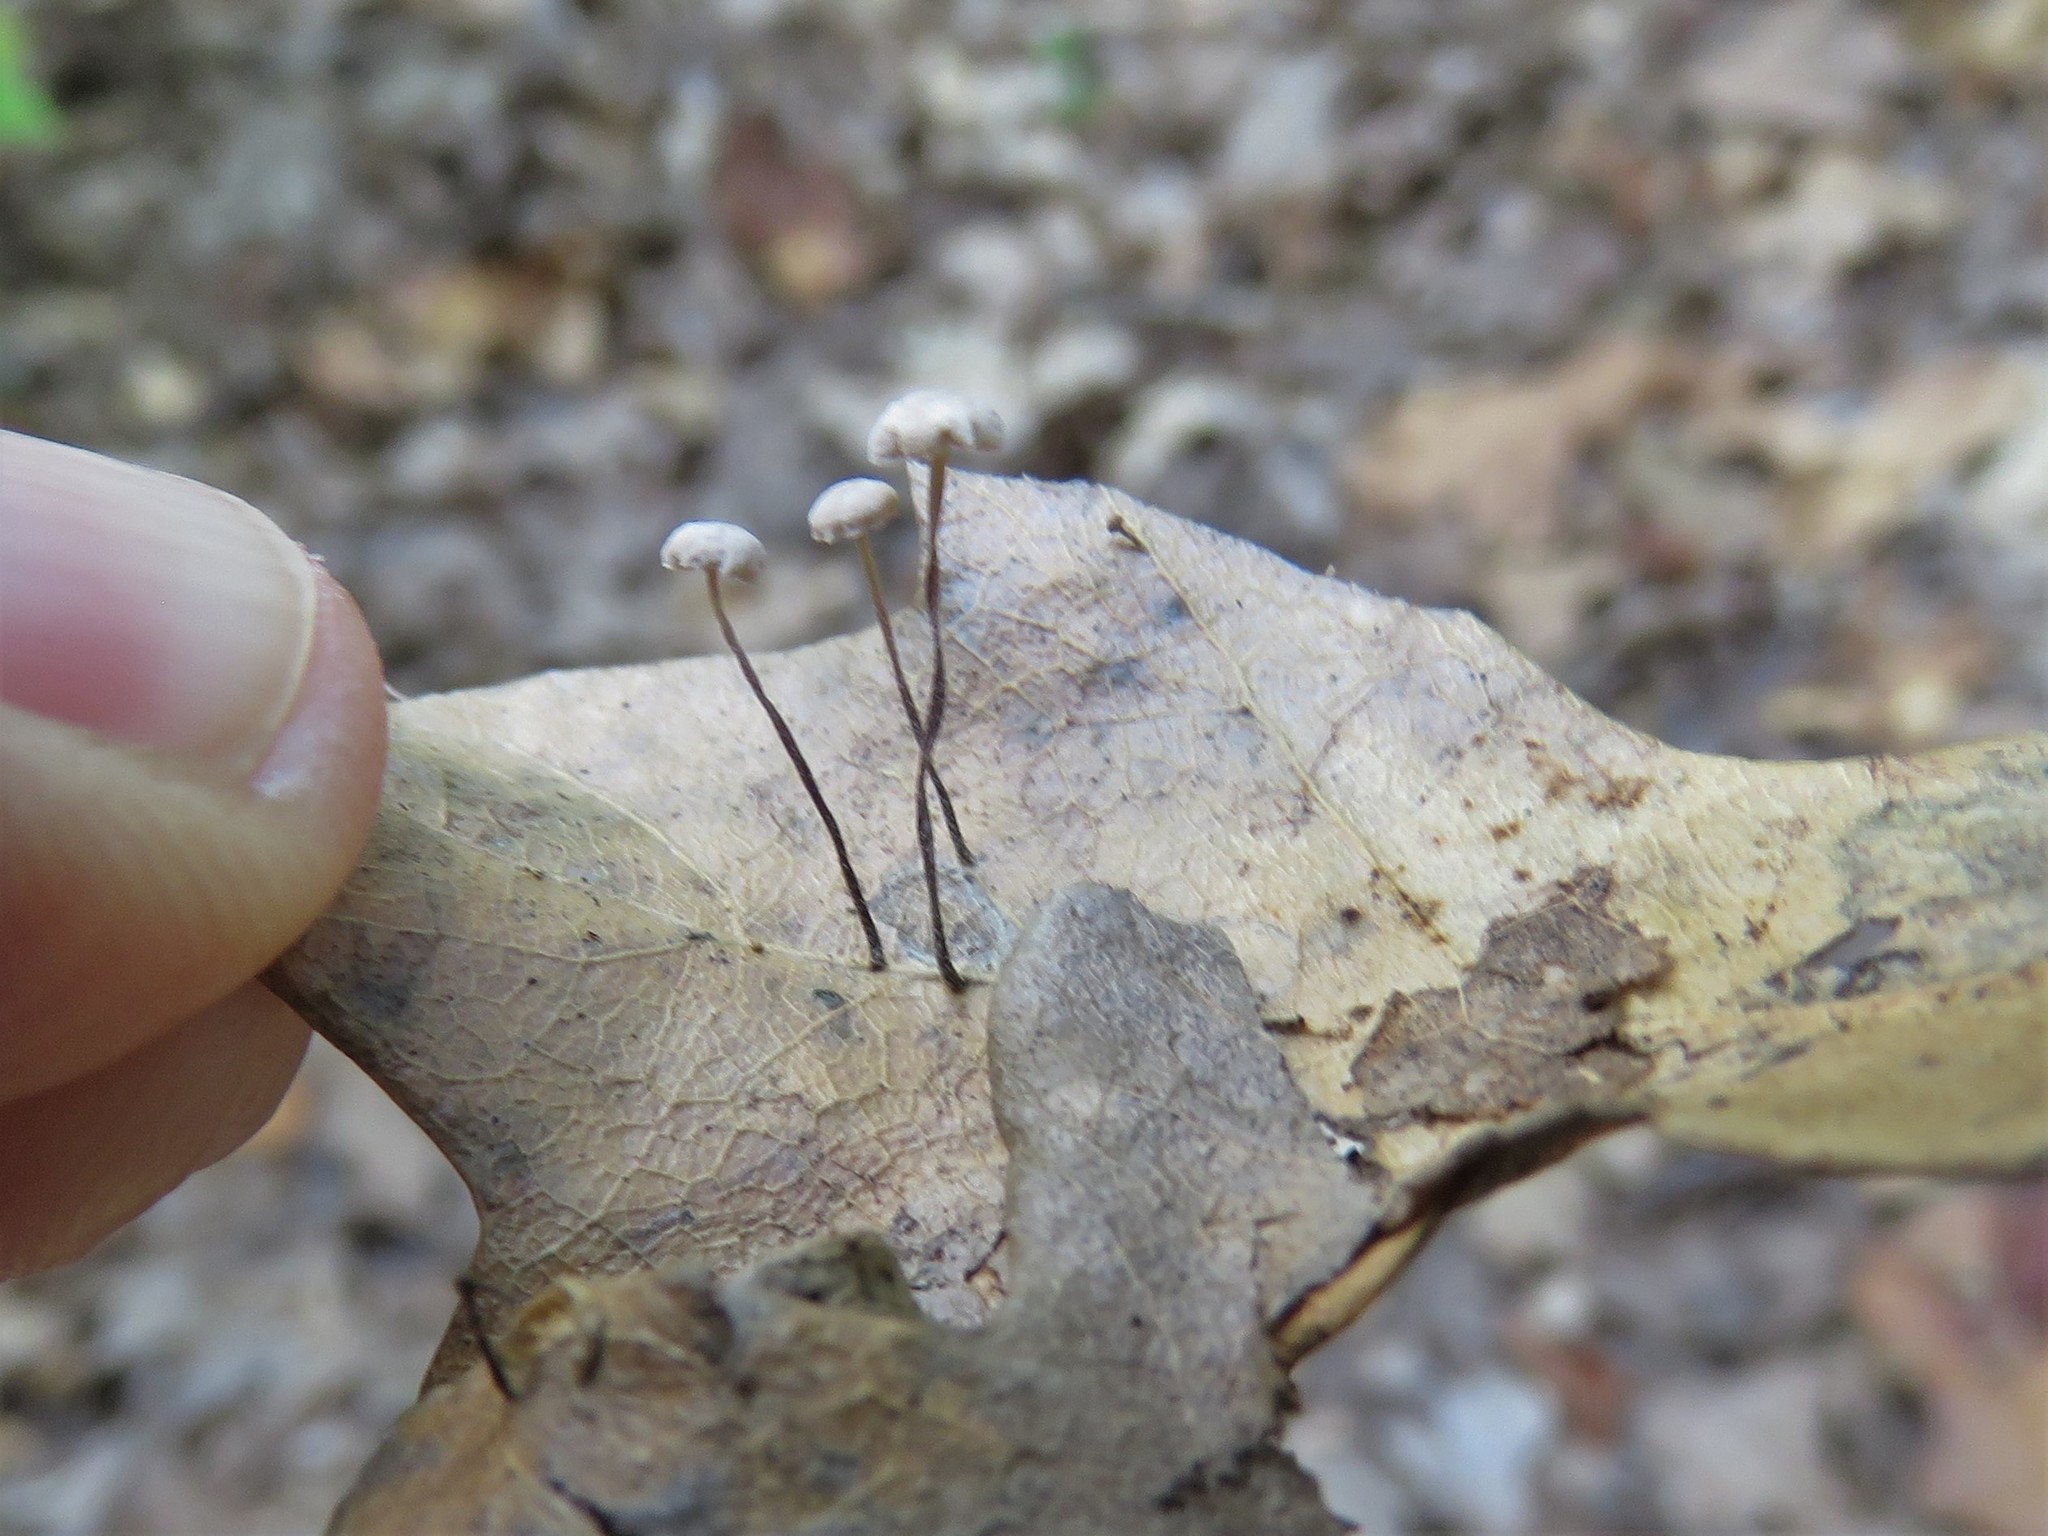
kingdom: Fungi
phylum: Basidiomycota
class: Agaricomycetes
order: Agaricales
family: Omphalotaceae
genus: Collybiopsis
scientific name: Collybiopsis quercophila
